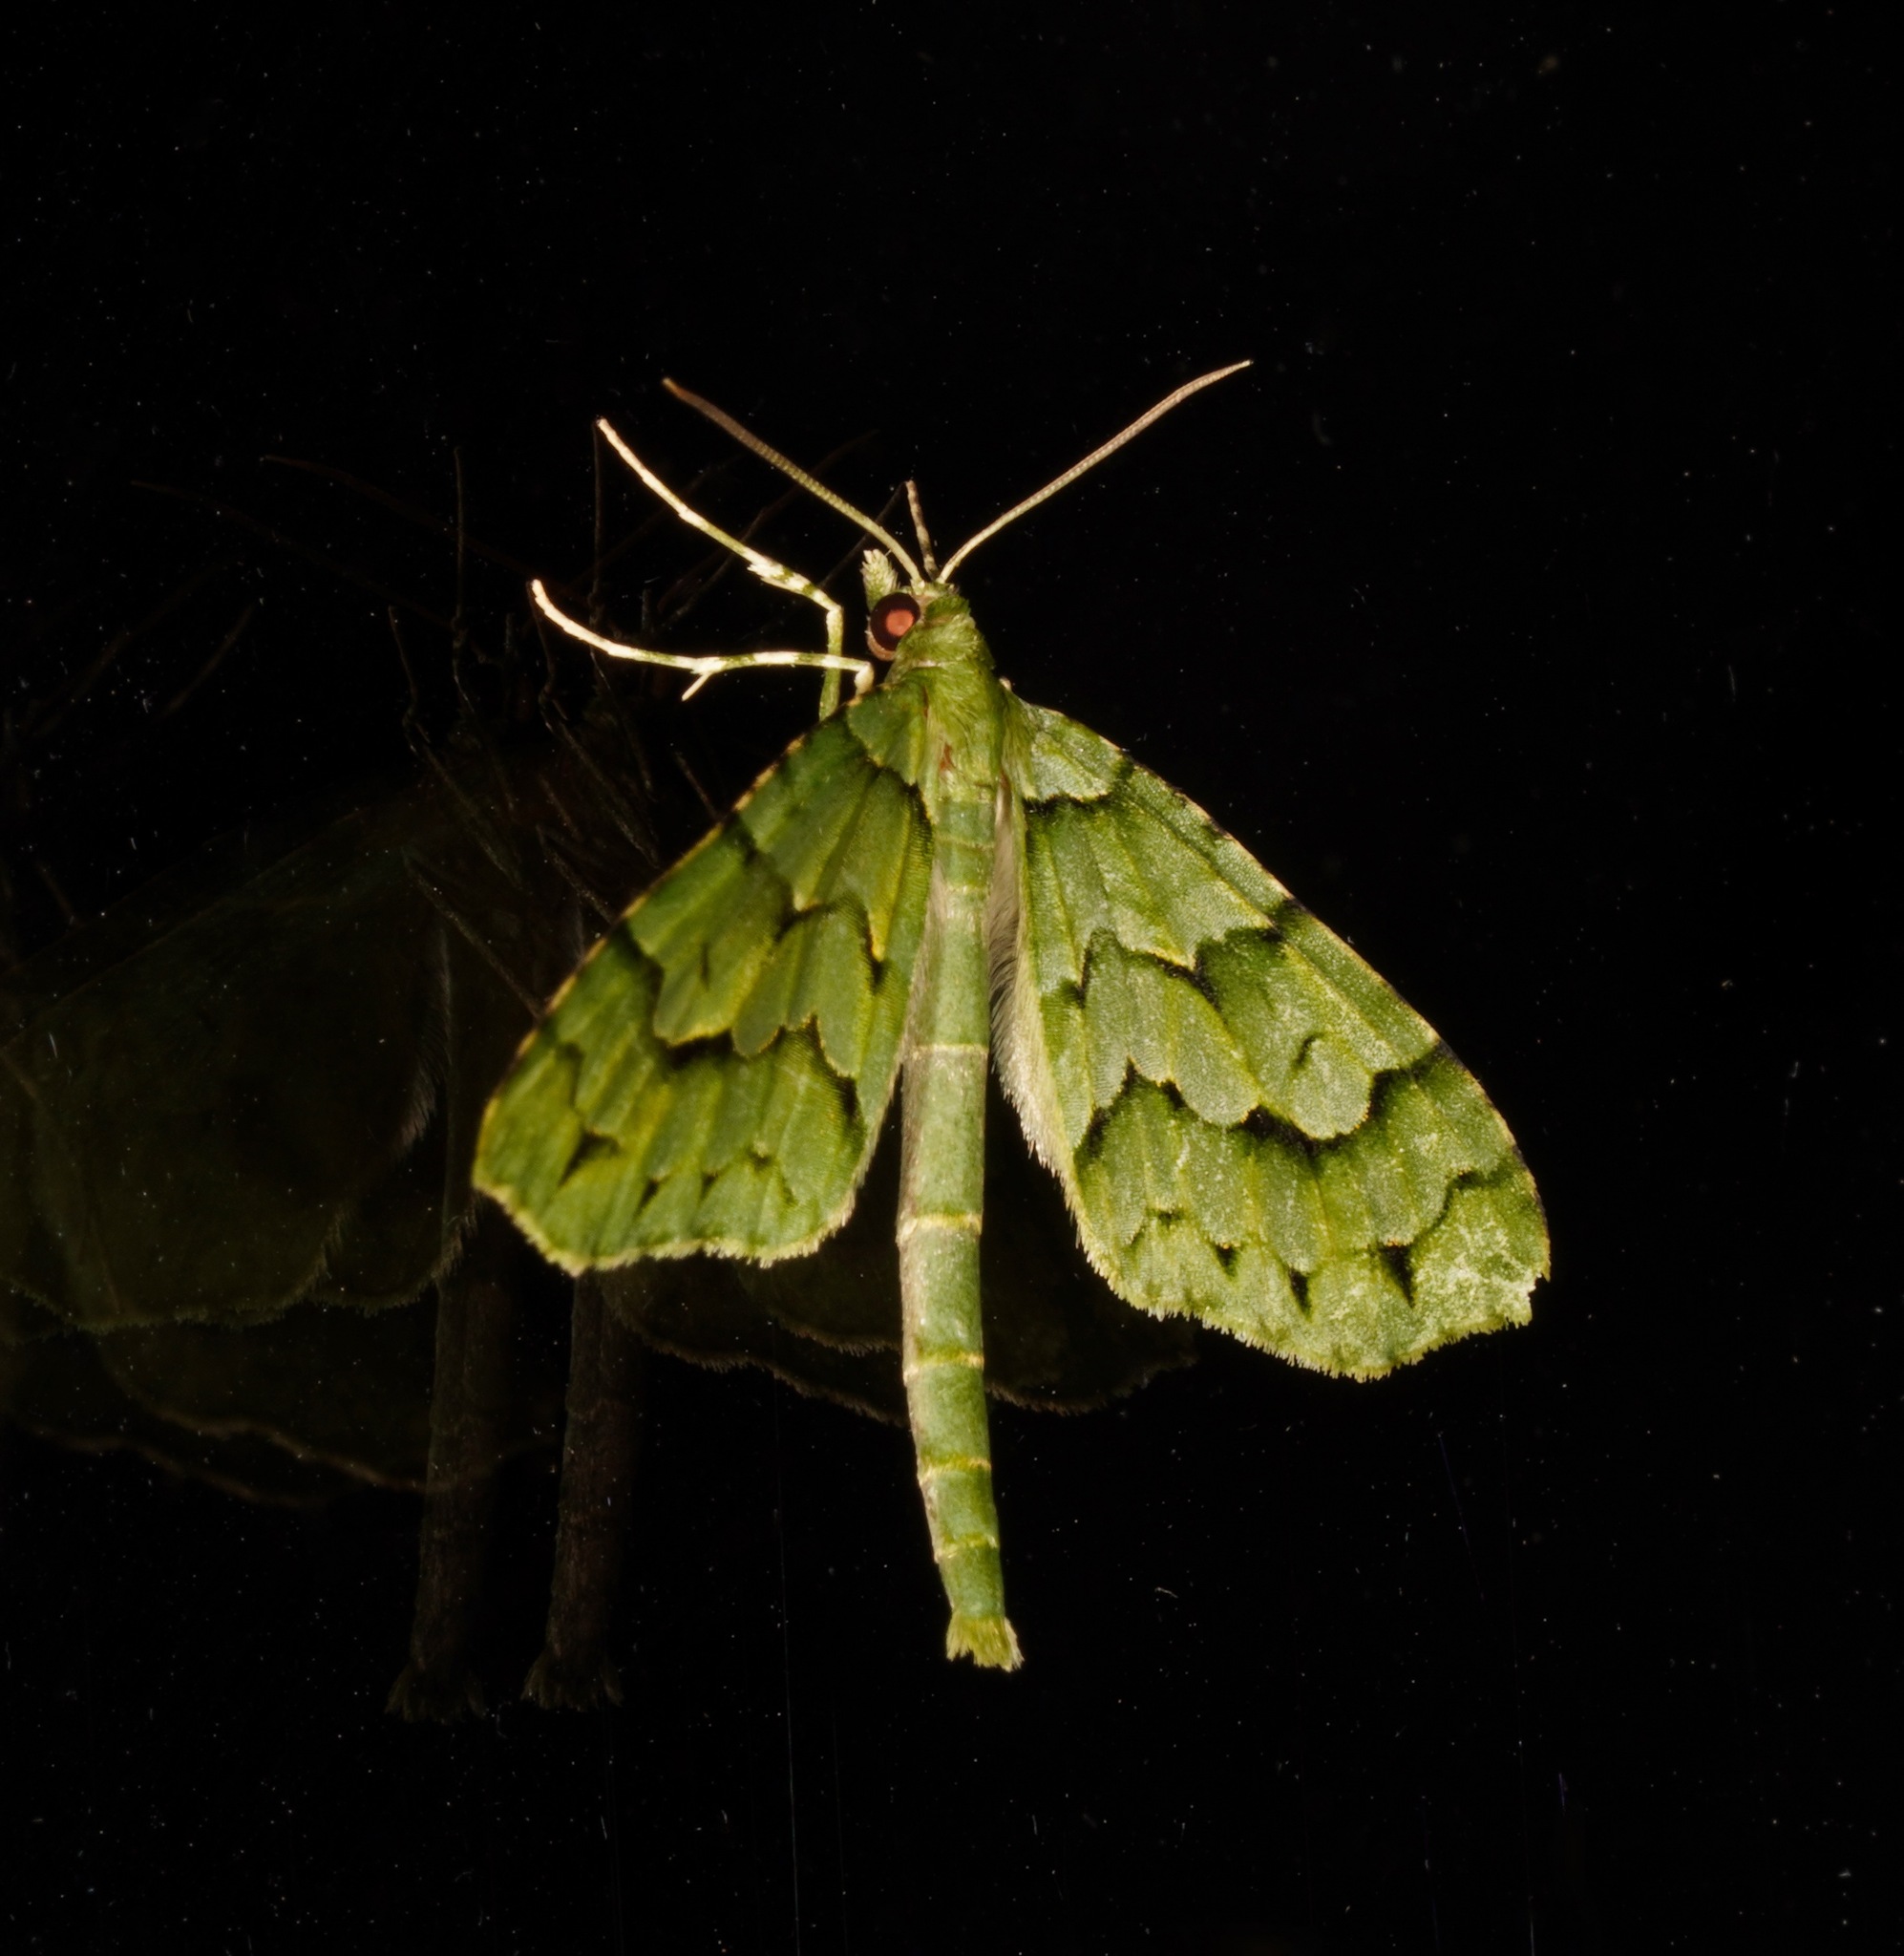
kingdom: Animalia
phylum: Arthropoda
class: Insecta
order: Lepidoptera
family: Geometridae
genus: Tatosoma
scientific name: Tatosoma lestevata
